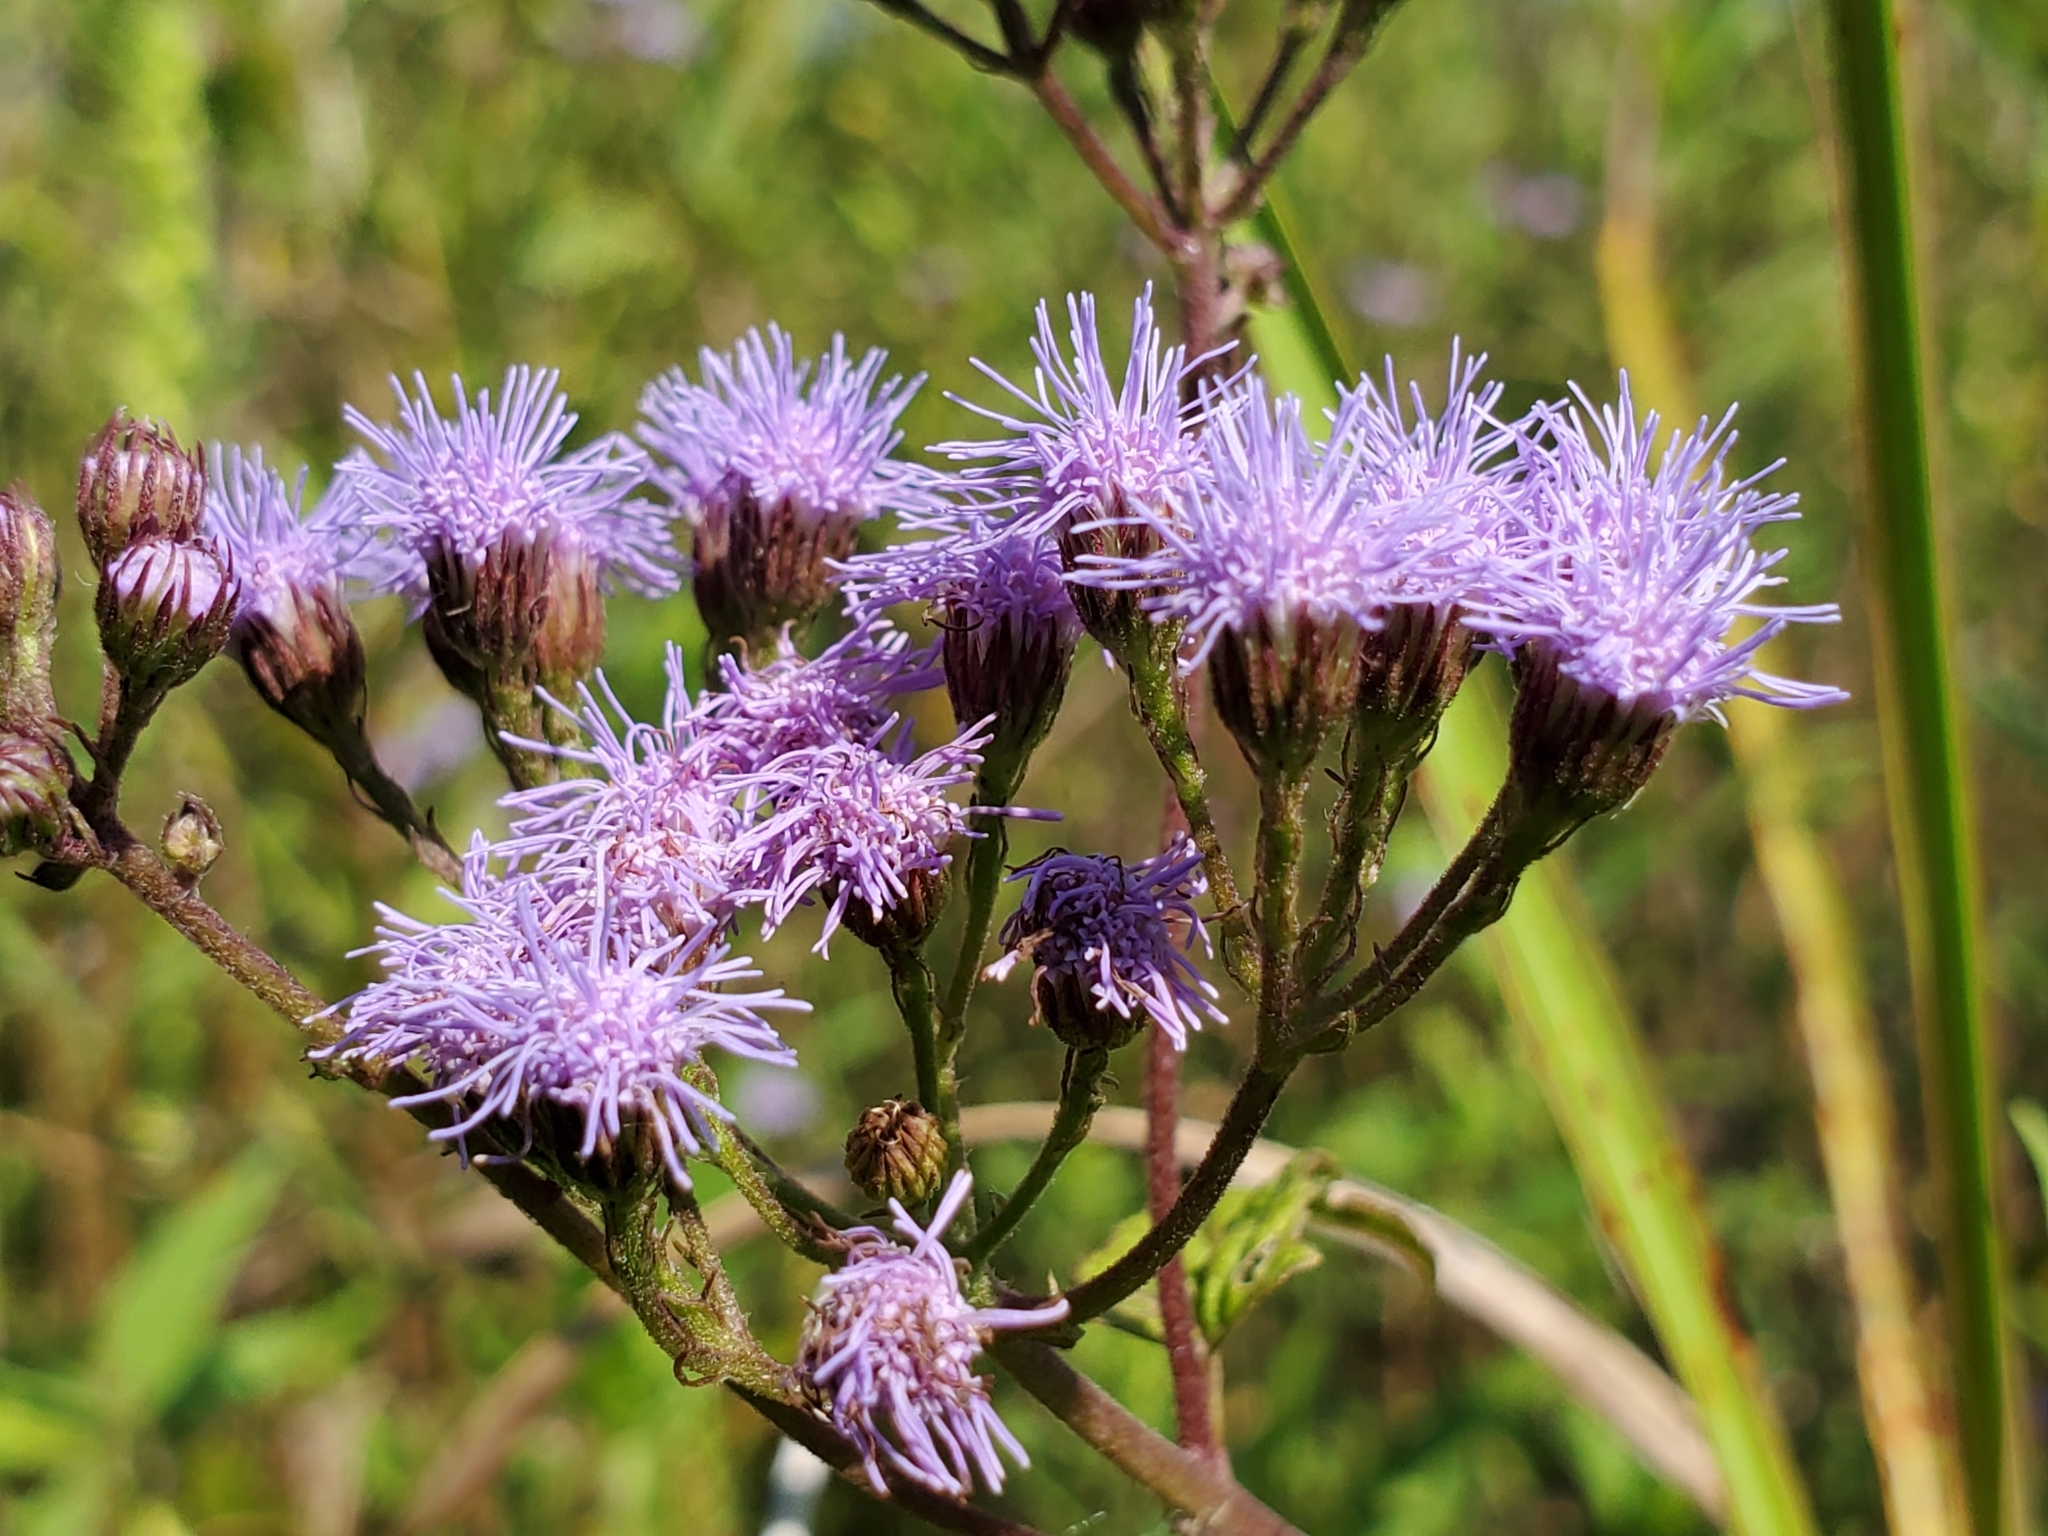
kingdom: Plantae
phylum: Tracheophyta
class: Magnoliopsida
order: Asterales
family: Asteraceae
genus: Conoclinium
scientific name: Conoclinium coelestinum
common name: Blue mistflower
